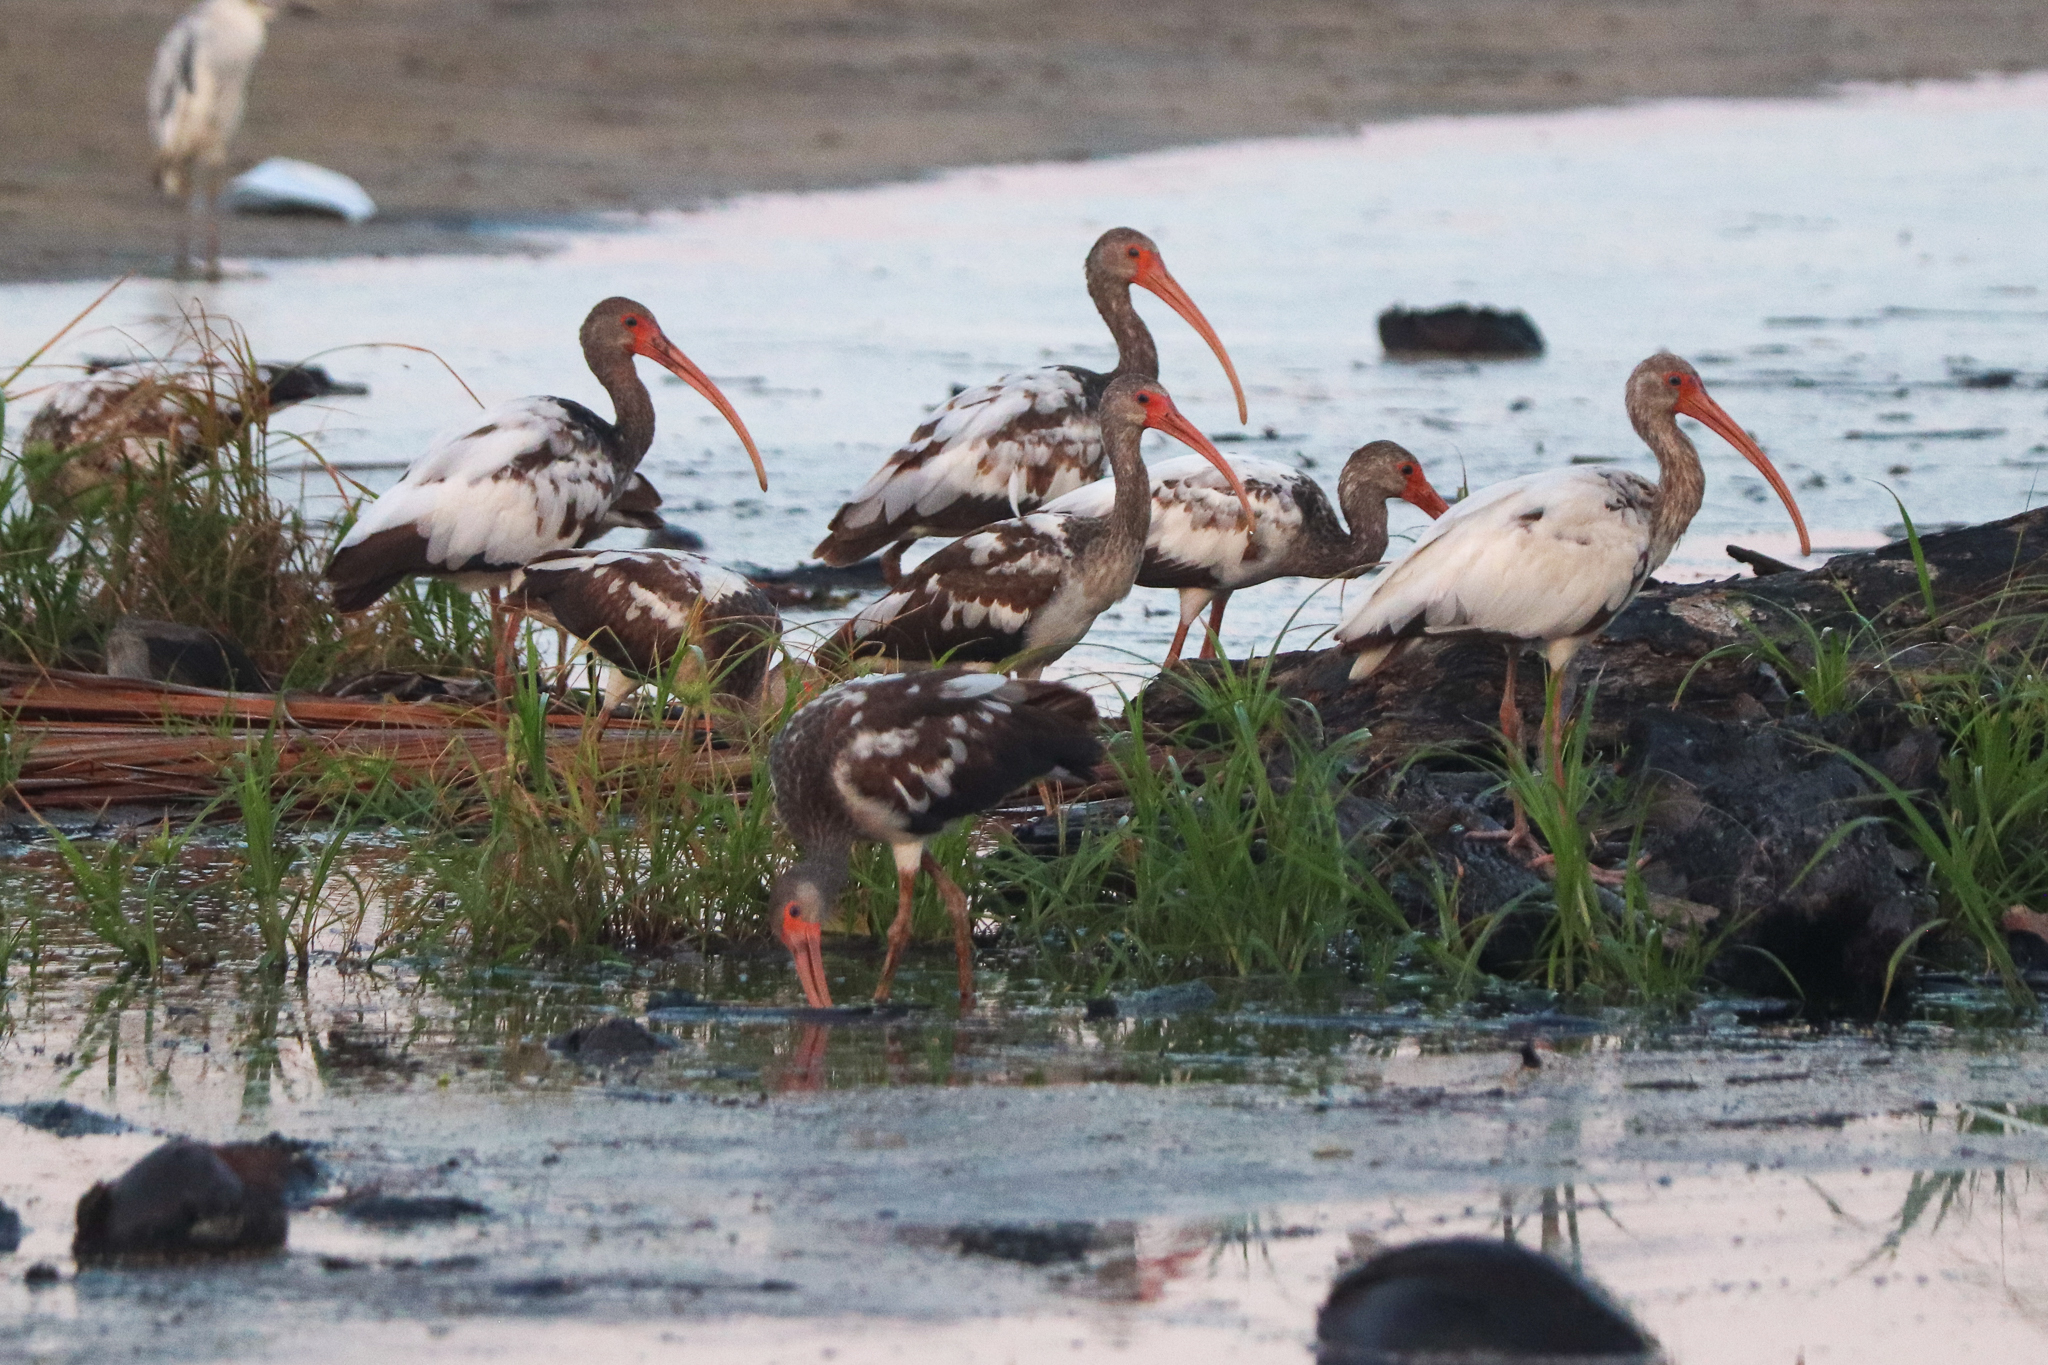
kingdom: Animalia
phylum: Chordata
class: Aves
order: Pelecaniformes
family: Threskiornithidae
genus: Eudocimus
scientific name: Eudocimus albus
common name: White ibis
